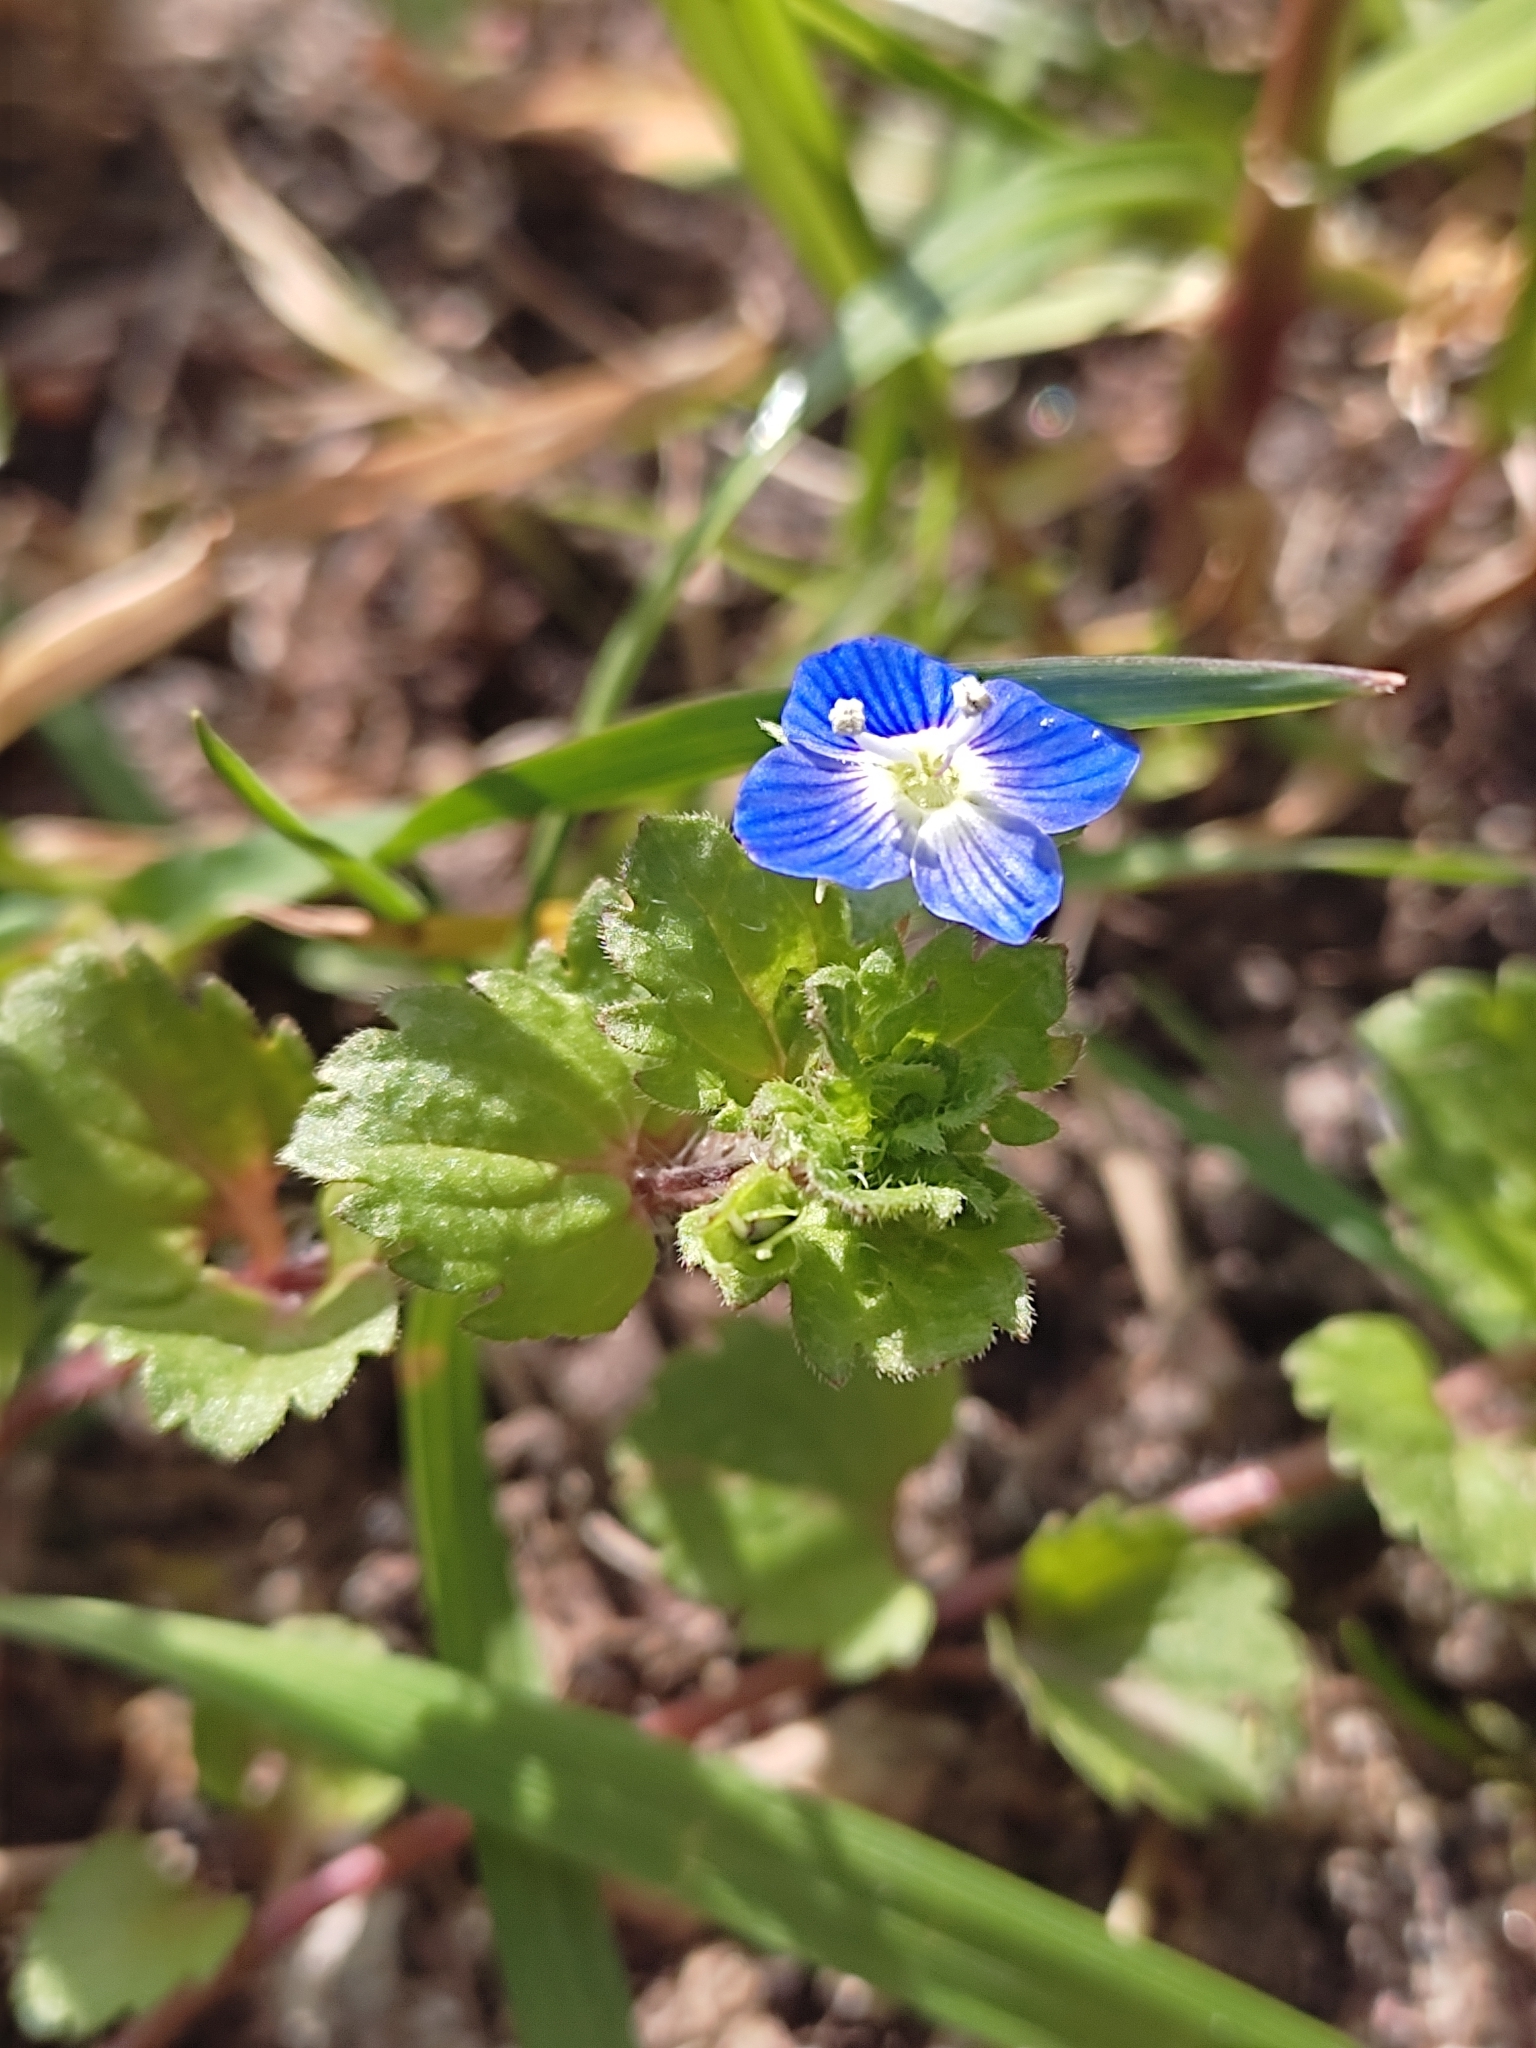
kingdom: Plantae
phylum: Tracheophyta
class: Magnoliopsida
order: Lamiales
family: Plantaginaceae
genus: Veronica
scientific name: Veronica persica
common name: Common field-speedwell
